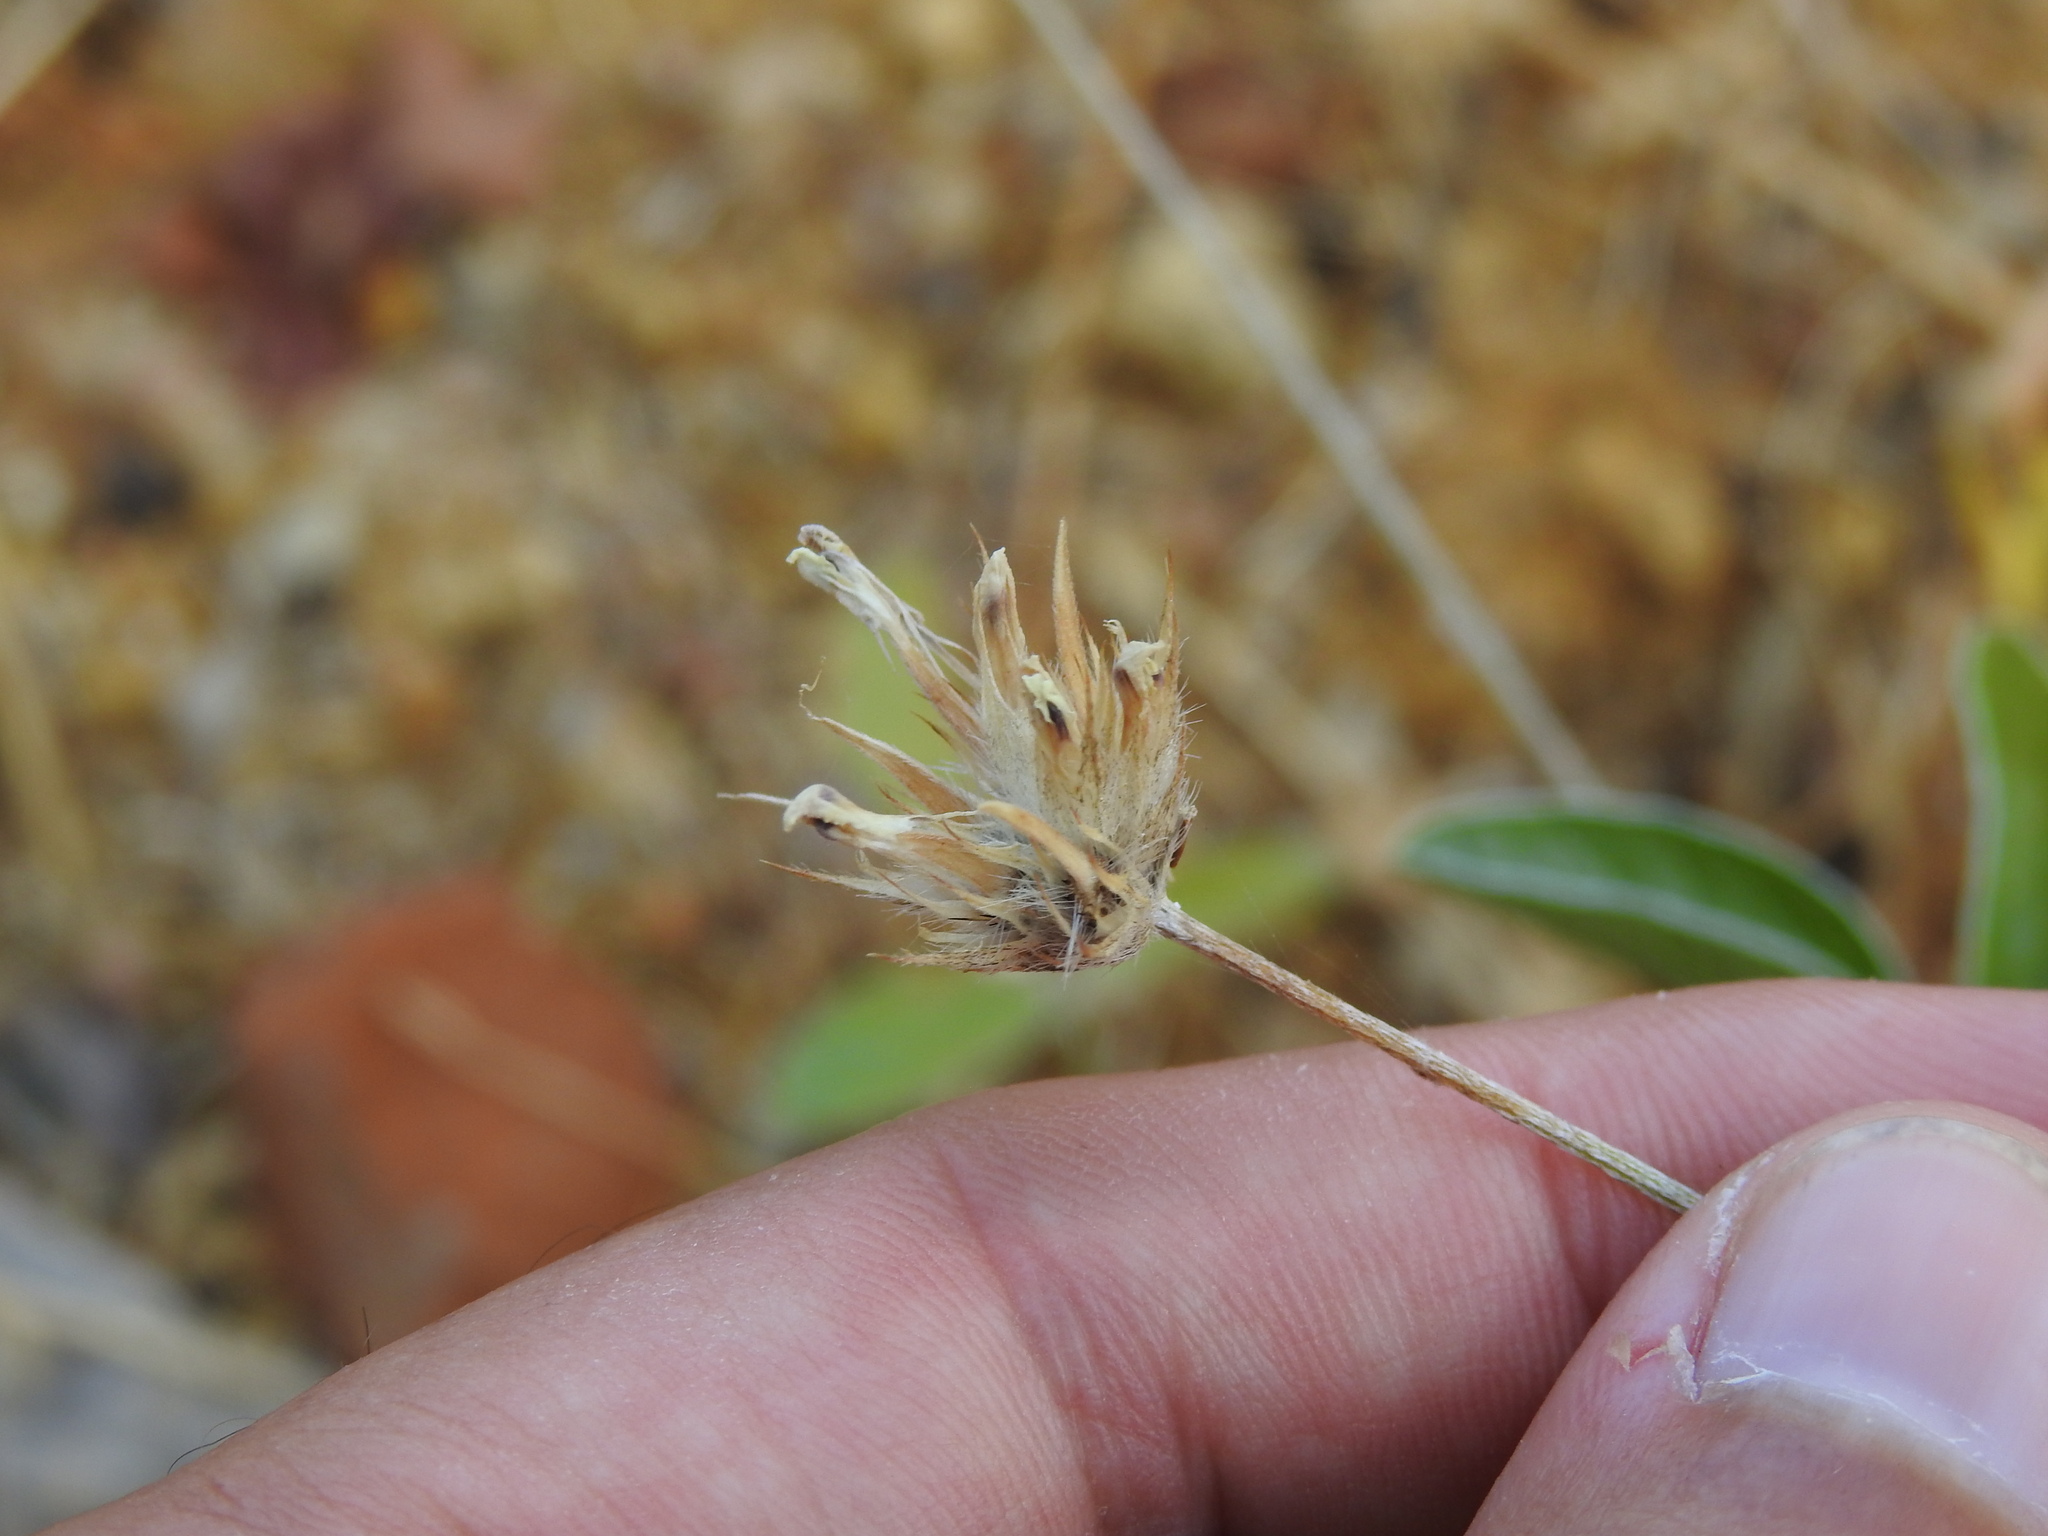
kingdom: Plantae
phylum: Tracheophyta
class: Magnoliopsida
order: Fabales
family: Fabaceae
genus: Bituminaria
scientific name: Bituminaria bituminosa
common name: Arabian pea
